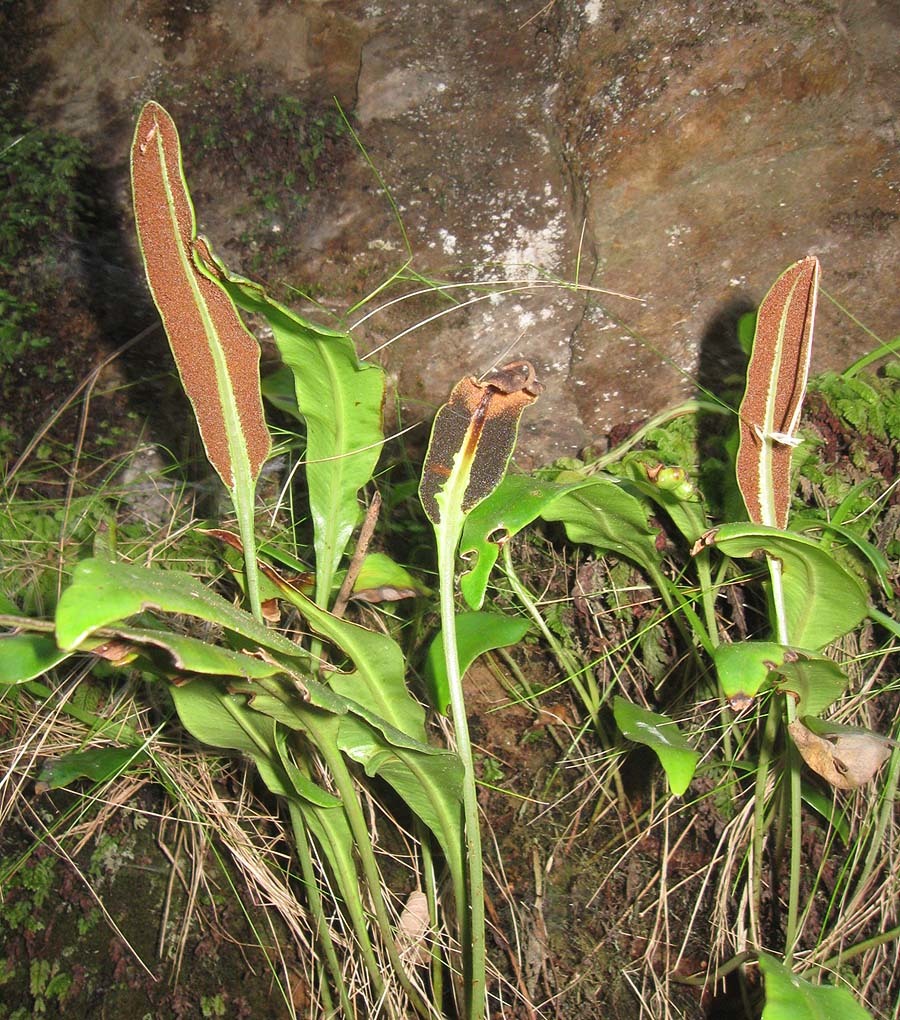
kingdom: Plantae
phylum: Tracheophyta
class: Polypodiopsida
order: Polypodiales
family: Dryopteridaceae
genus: Elaphoglossum
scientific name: Elaphoglossum angustatum
